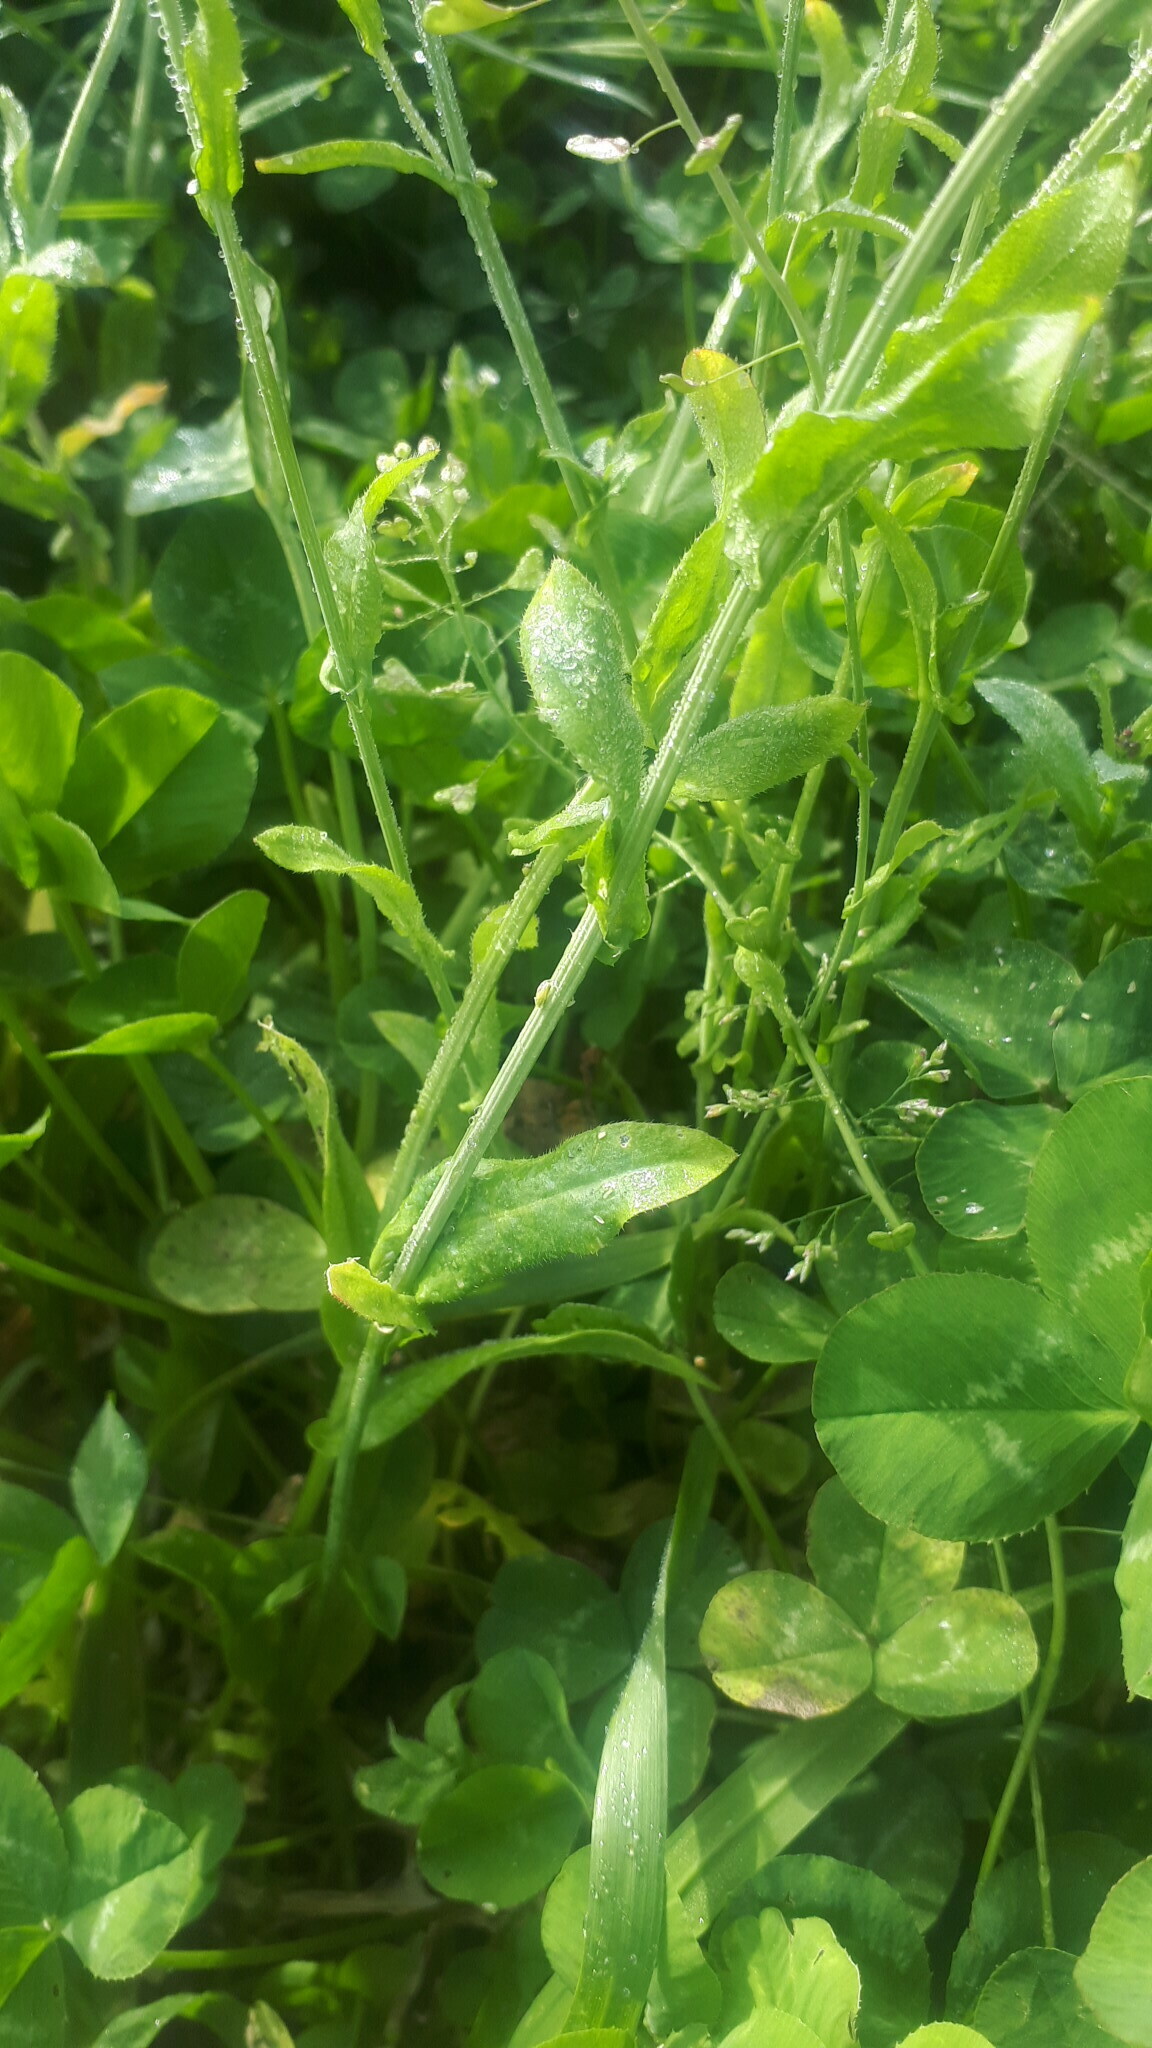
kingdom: Plantae
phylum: Tracheophyta
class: Magnoliopsida
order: Brassicales
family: Brassicaceae
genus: Capsella
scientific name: Capsella bursa-pastoris
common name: Shepherd's purse
